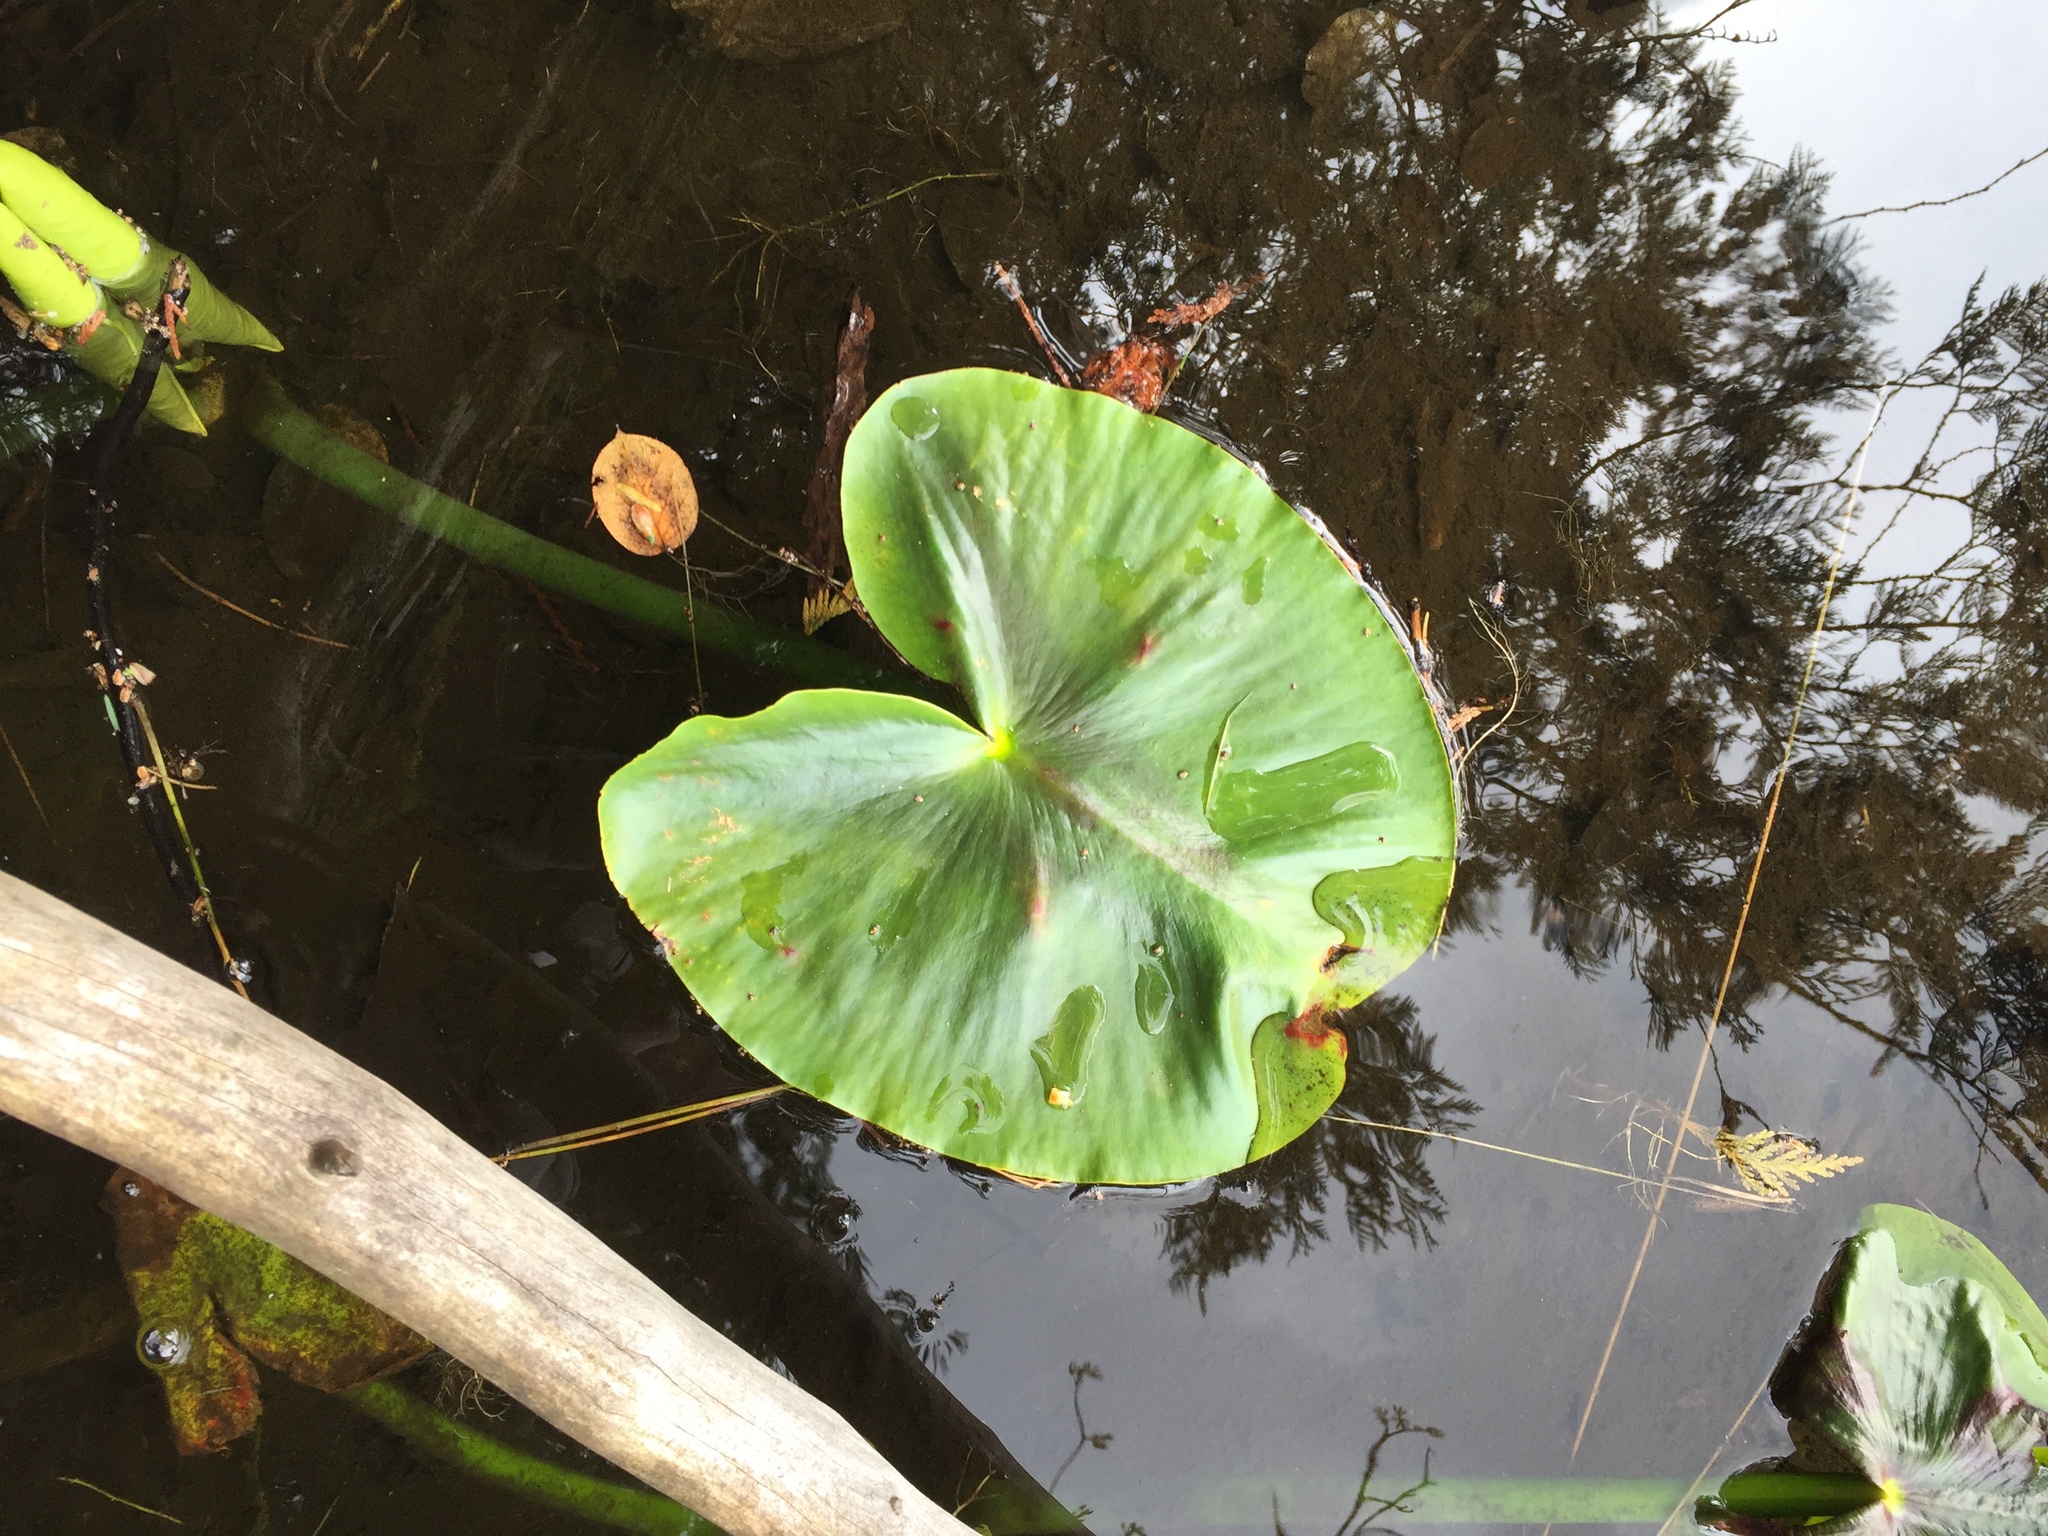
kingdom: Plantae
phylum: Tracheophyta
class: Magnoliopsida
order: Nymphaeales
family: Nymphaeaceae
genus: Nuphar
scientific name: Nuphar polysepala
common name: Rocky mountain cow-lily
